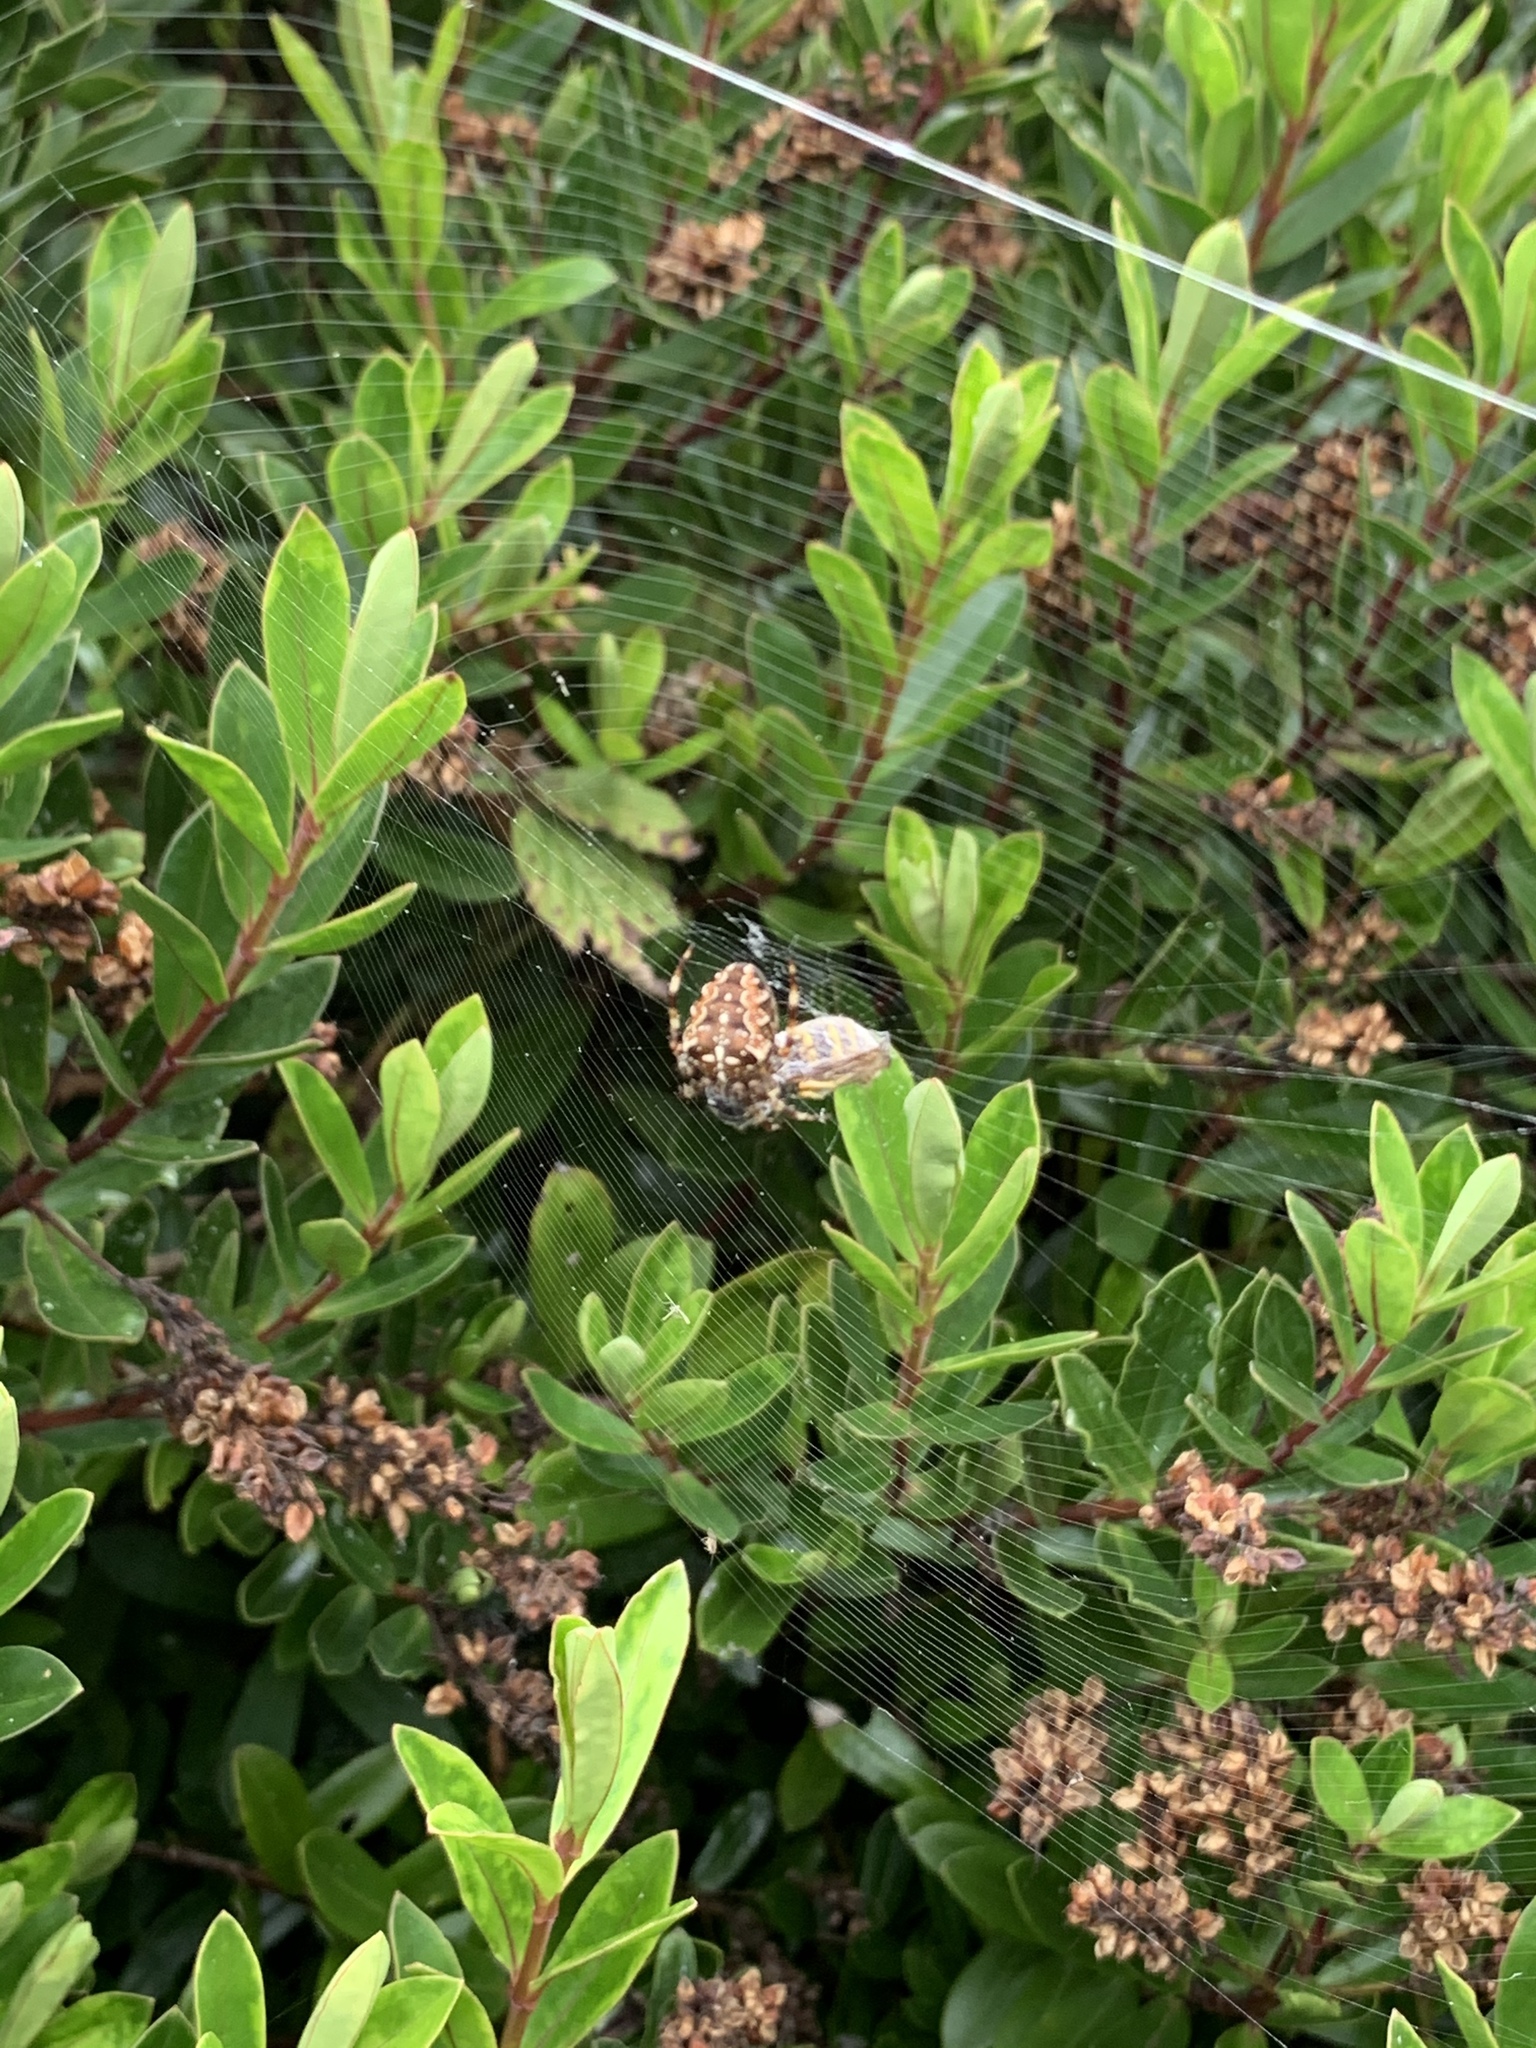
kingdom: Animalia
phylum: Arthropoda
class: Arachnida
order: Araneae
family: Araneidae
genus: Araneus
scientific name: Araneus diadematus
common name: Cross orbweaver
